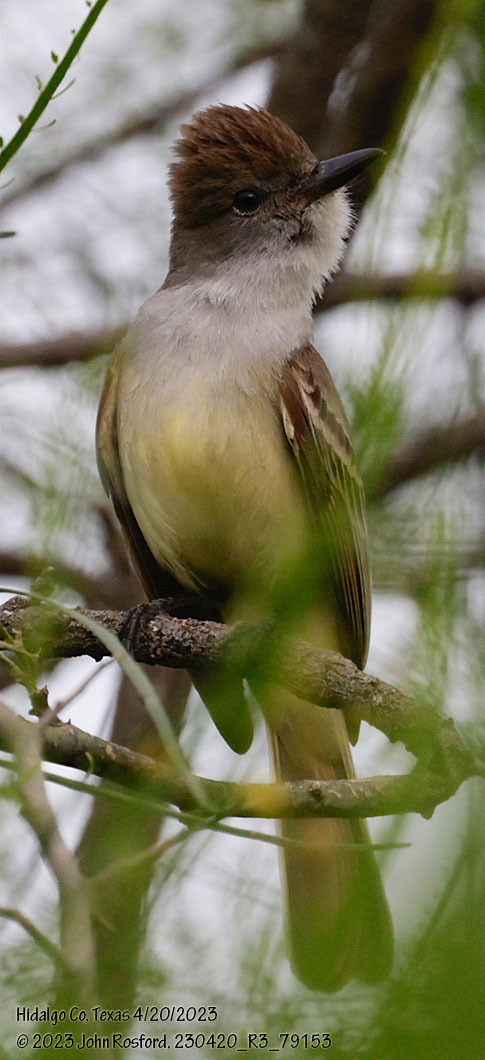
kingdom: Animalia
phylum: Chordata
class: Aves
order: Passeriformes
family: Tyrannidae
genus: Myiarchus
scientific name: Myiarchus tyrannulus
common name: Brown-crested flycatcher
